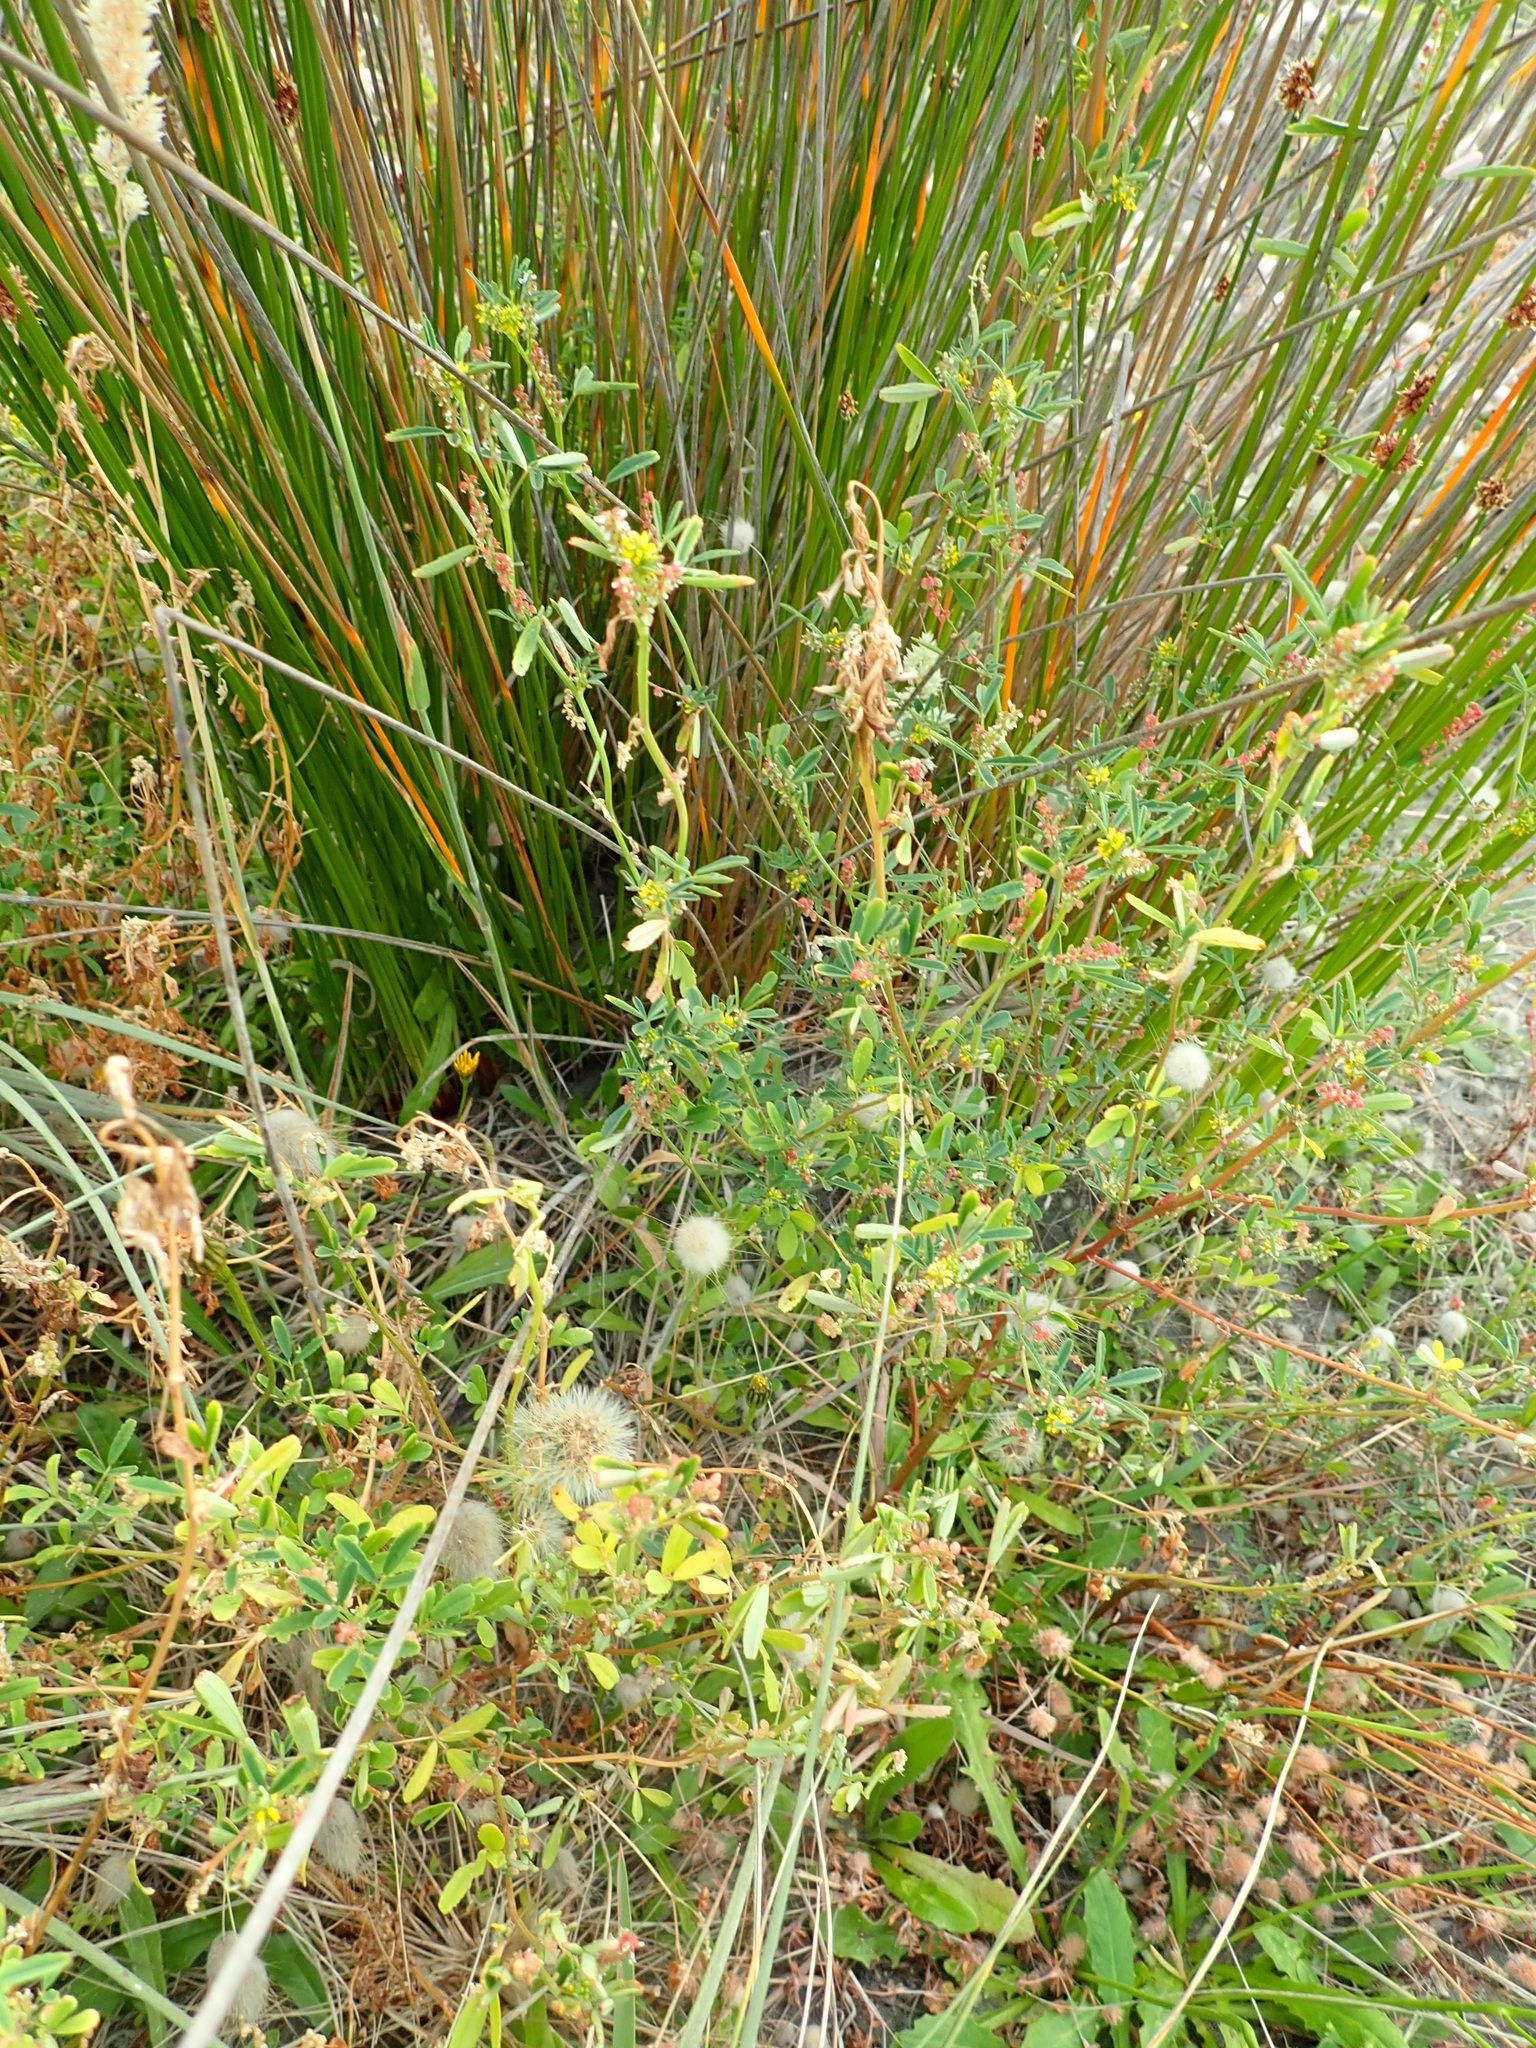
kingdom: Plantae
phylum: Tracheophyta
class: Magnoliopsida
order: Fabales
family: Fabaceae
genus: Melilotus
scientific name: Melilotus indicus
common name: Small melilot
